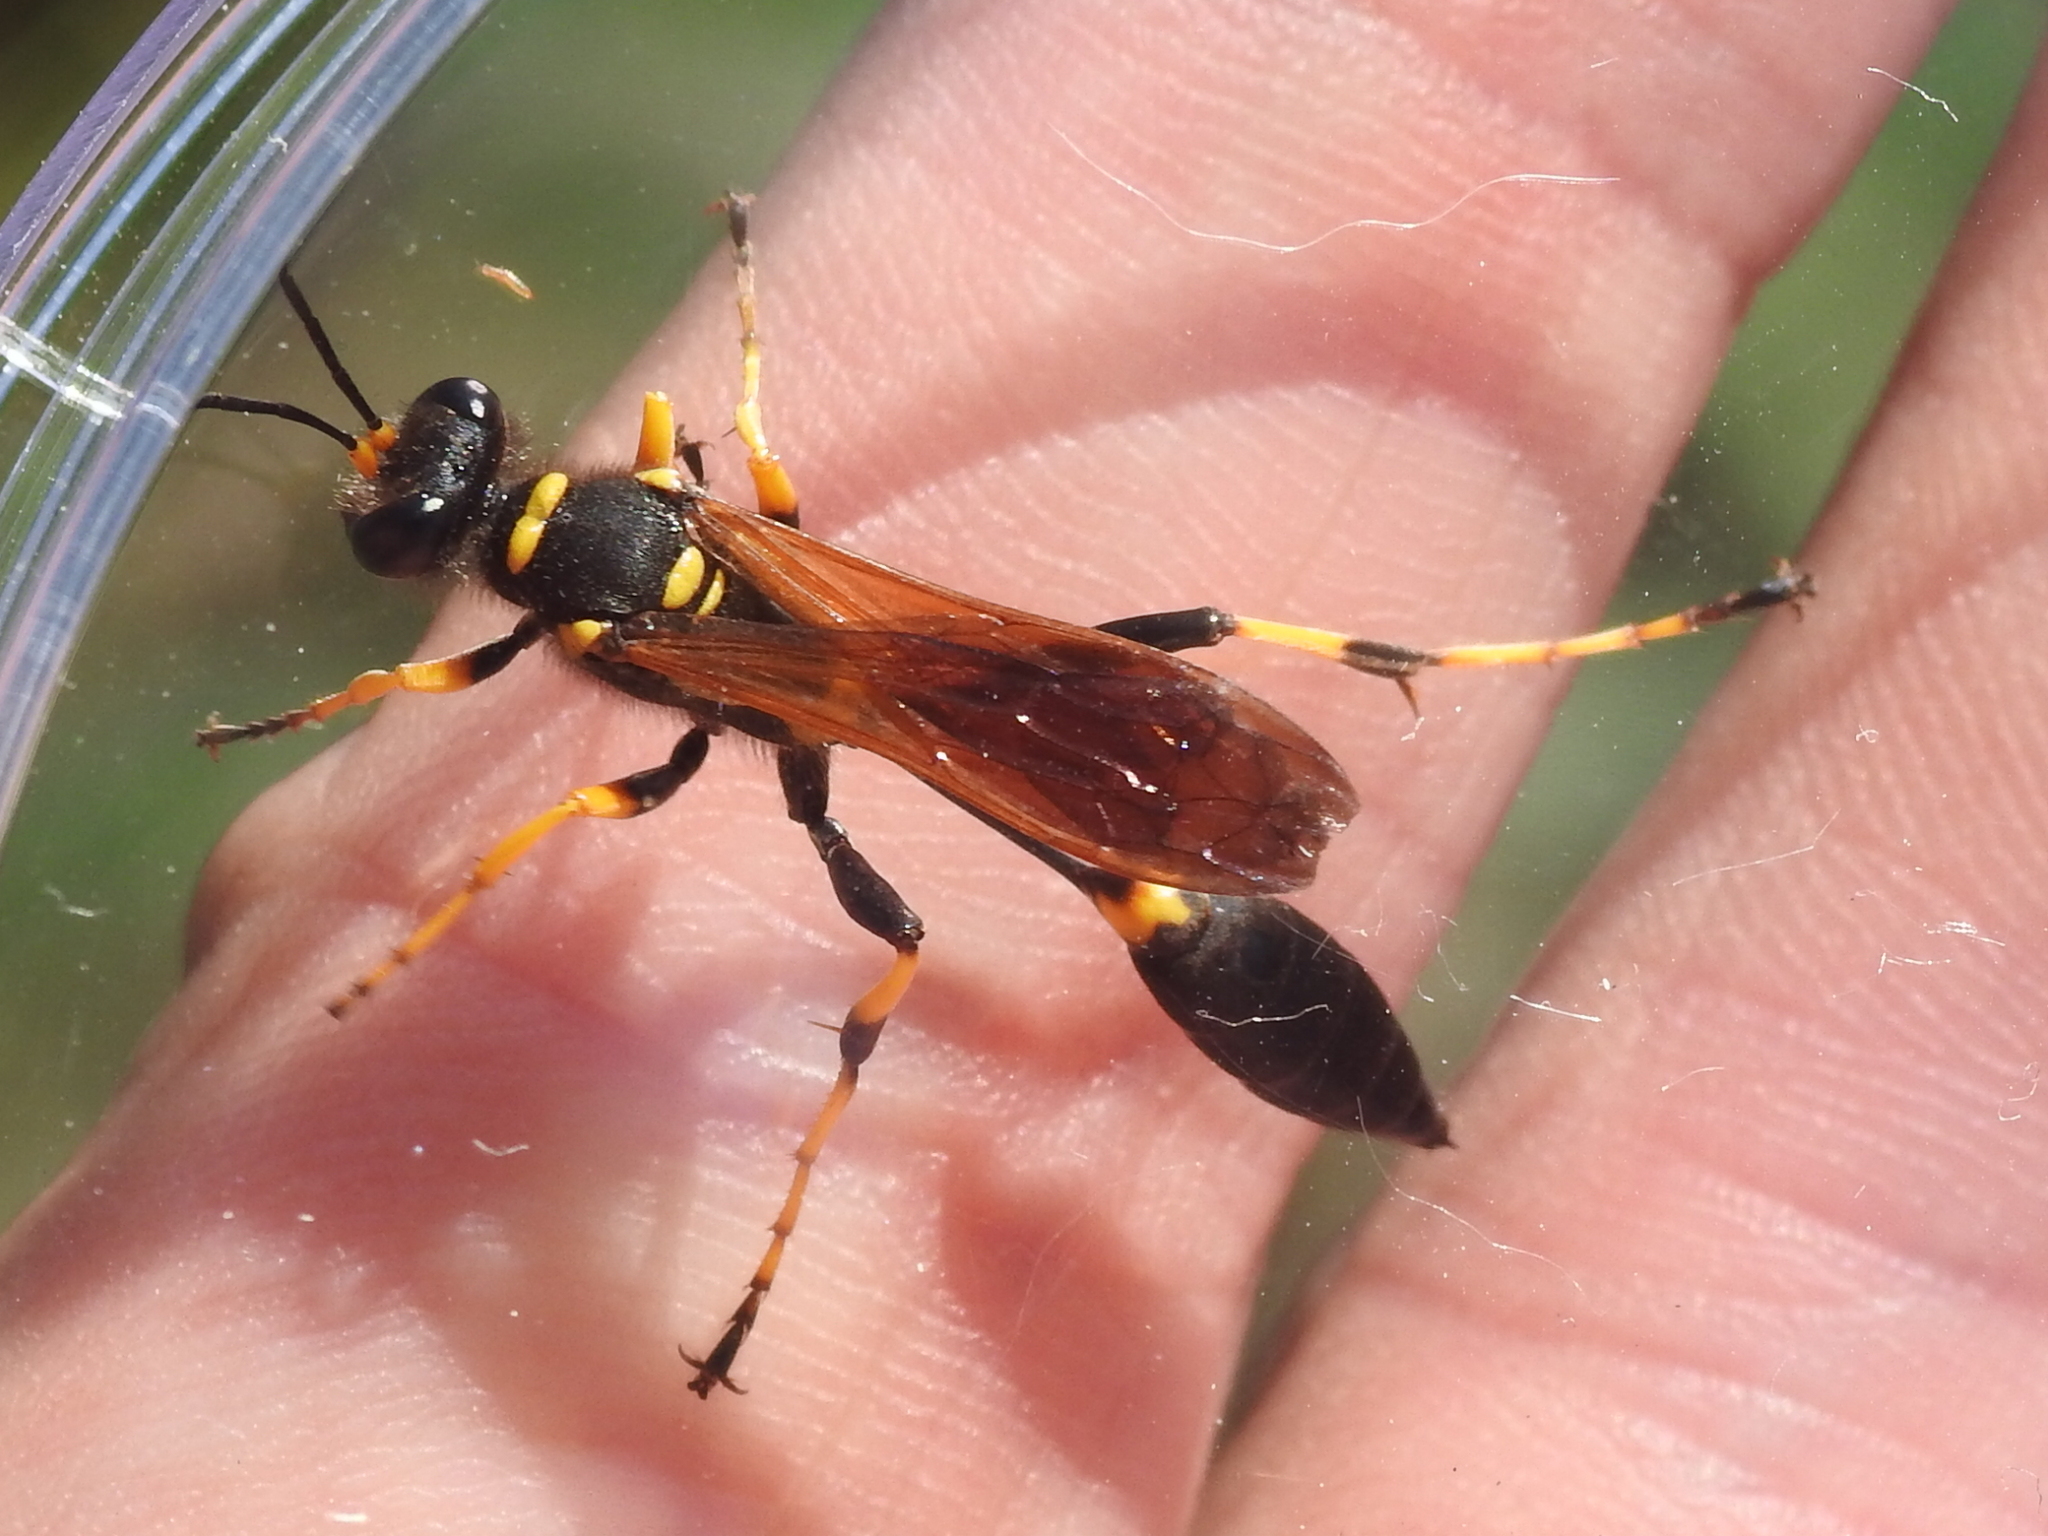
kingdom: Animalia
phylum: Arthropoda
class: Insecta
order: Hymenoptera
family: Sphecidae
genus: Sceliphron
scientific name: Sceliphron caementarium
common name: Mud dauber
